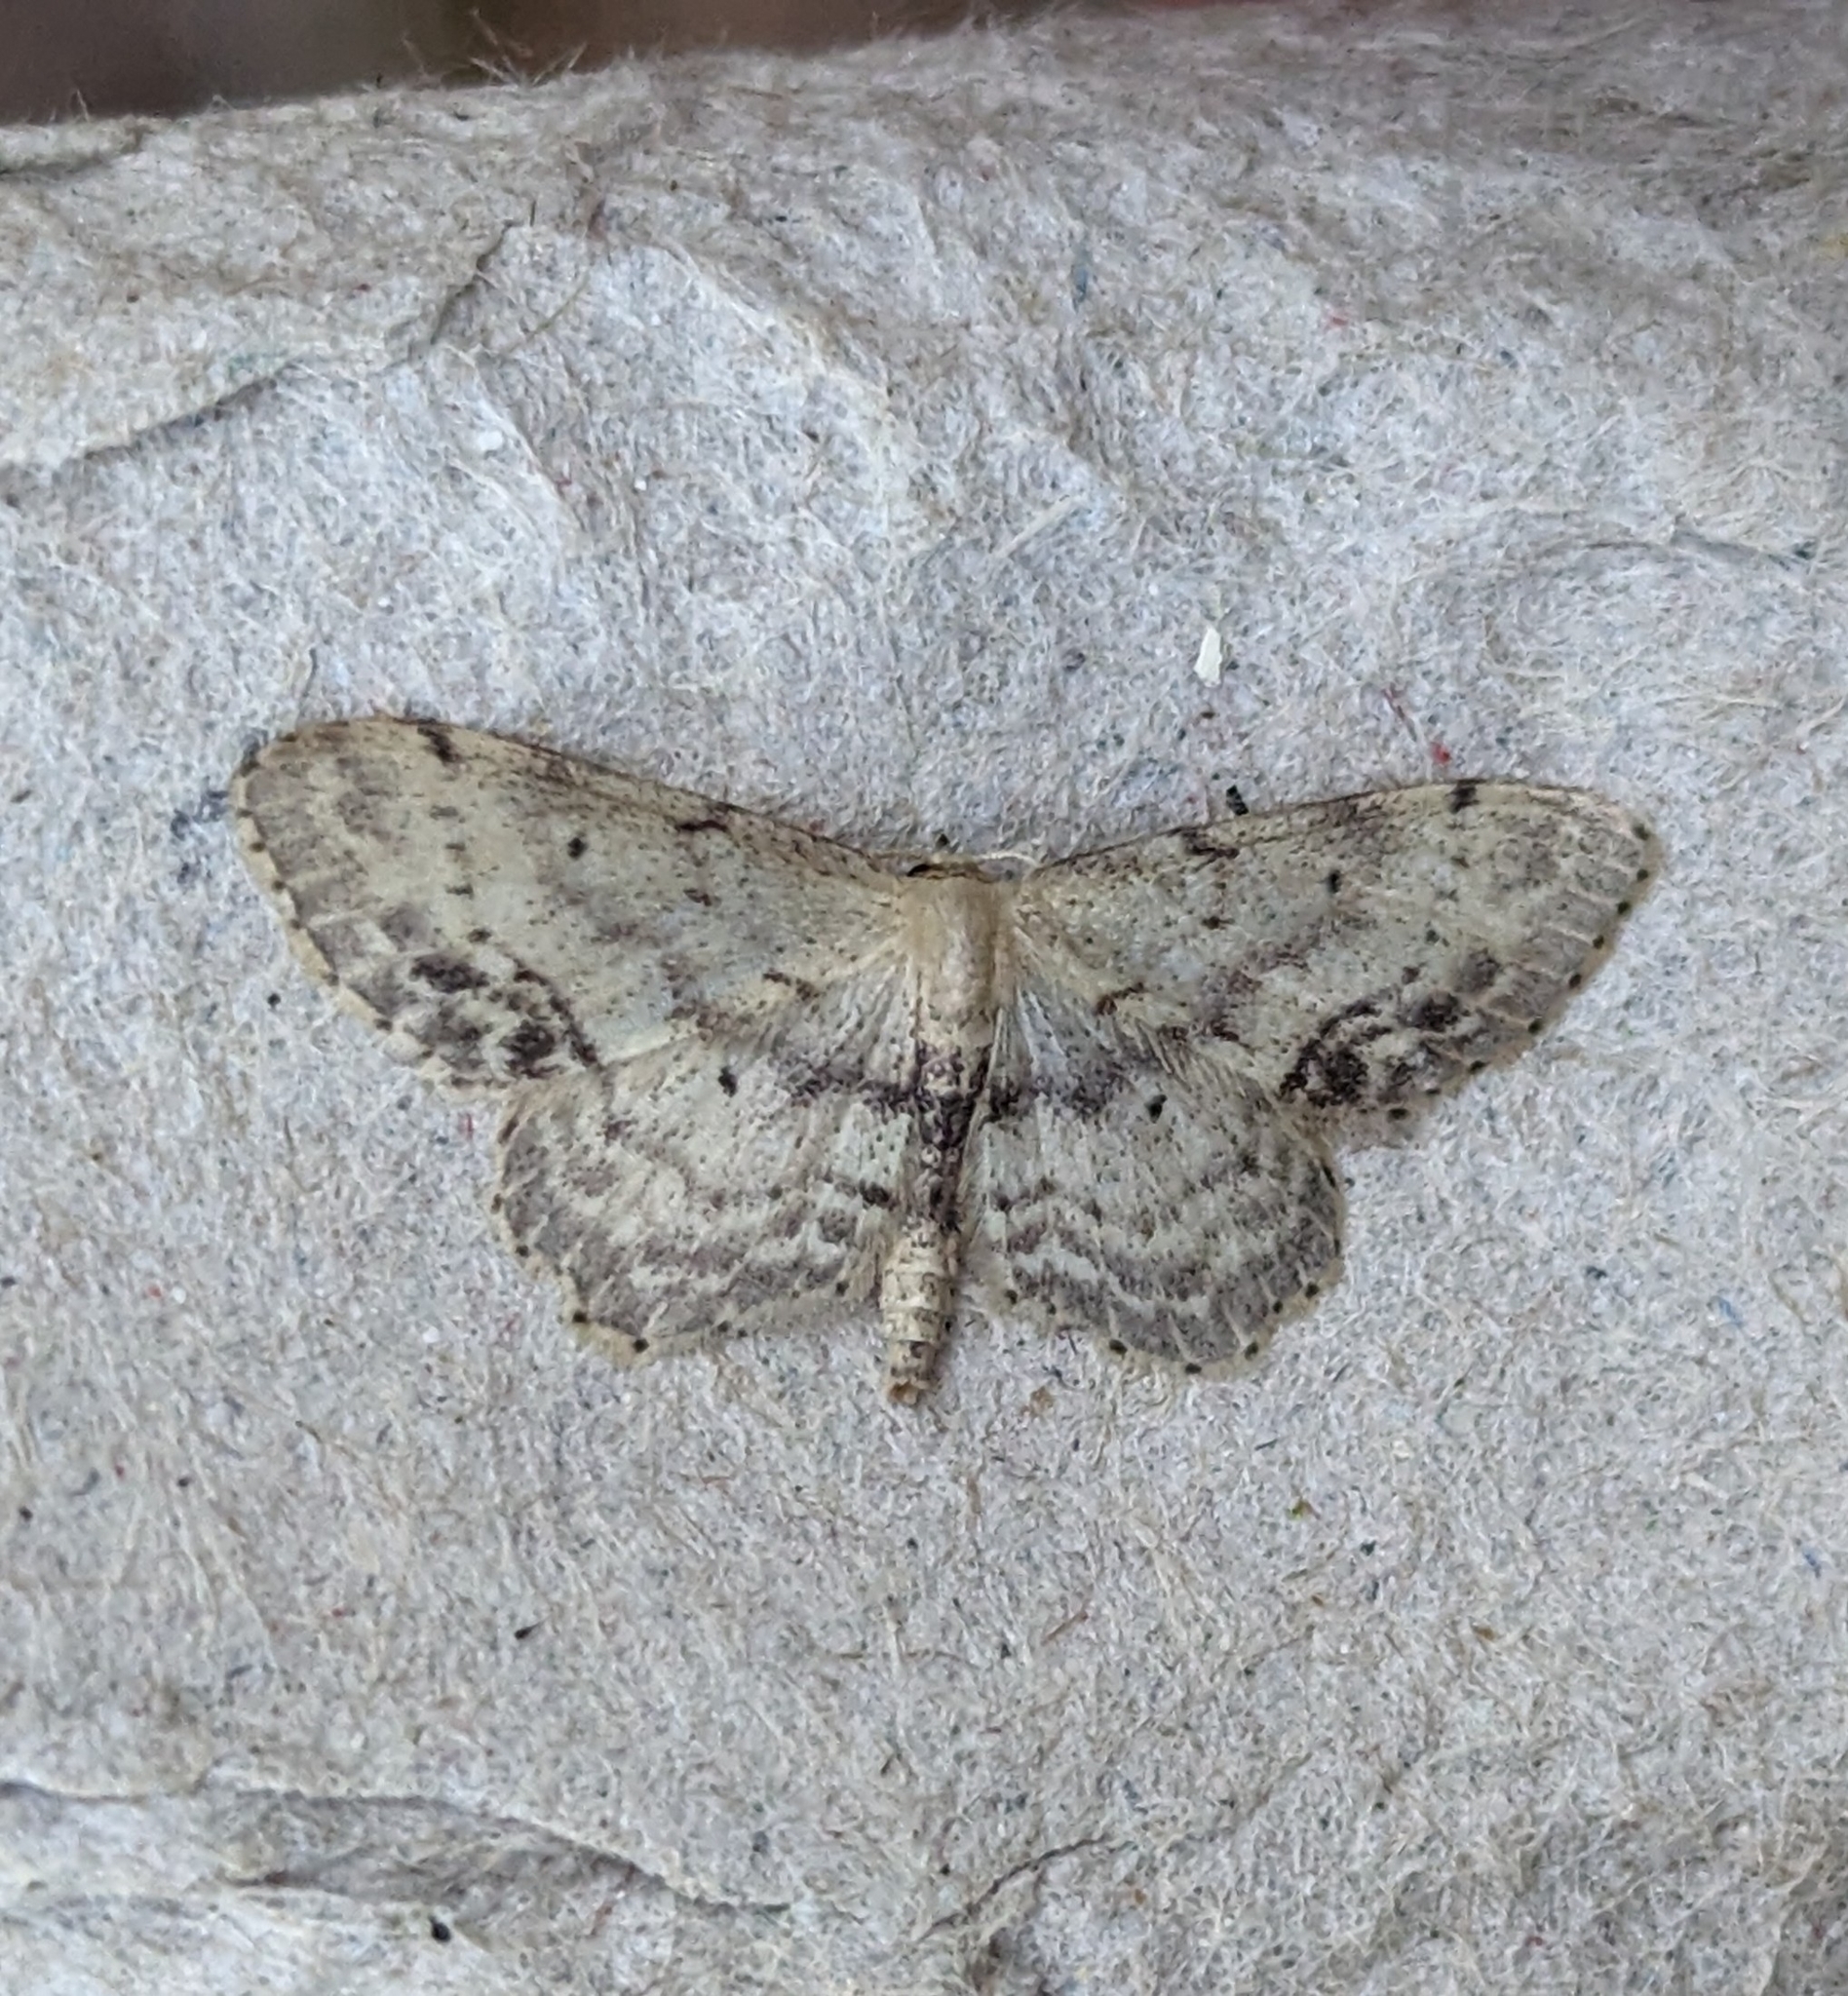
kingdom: Animalia
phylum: Arthropoda
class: Insecta
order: Lepidoptera
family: Geometridae
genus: Idaea
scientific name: Idaea dimidiata
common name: Single-dotted wave
